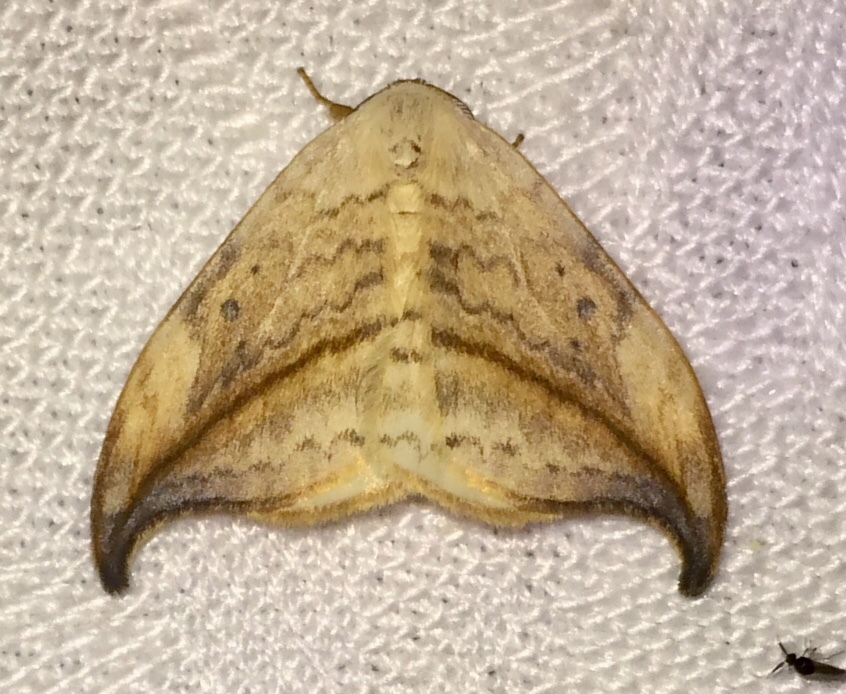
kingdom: Animalia
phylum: Arthropoda
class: Insecta
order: Lepidoptera
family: Drepanidae
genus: Drepana
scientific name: Drepana arcuata
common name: Arched hooktip moth
